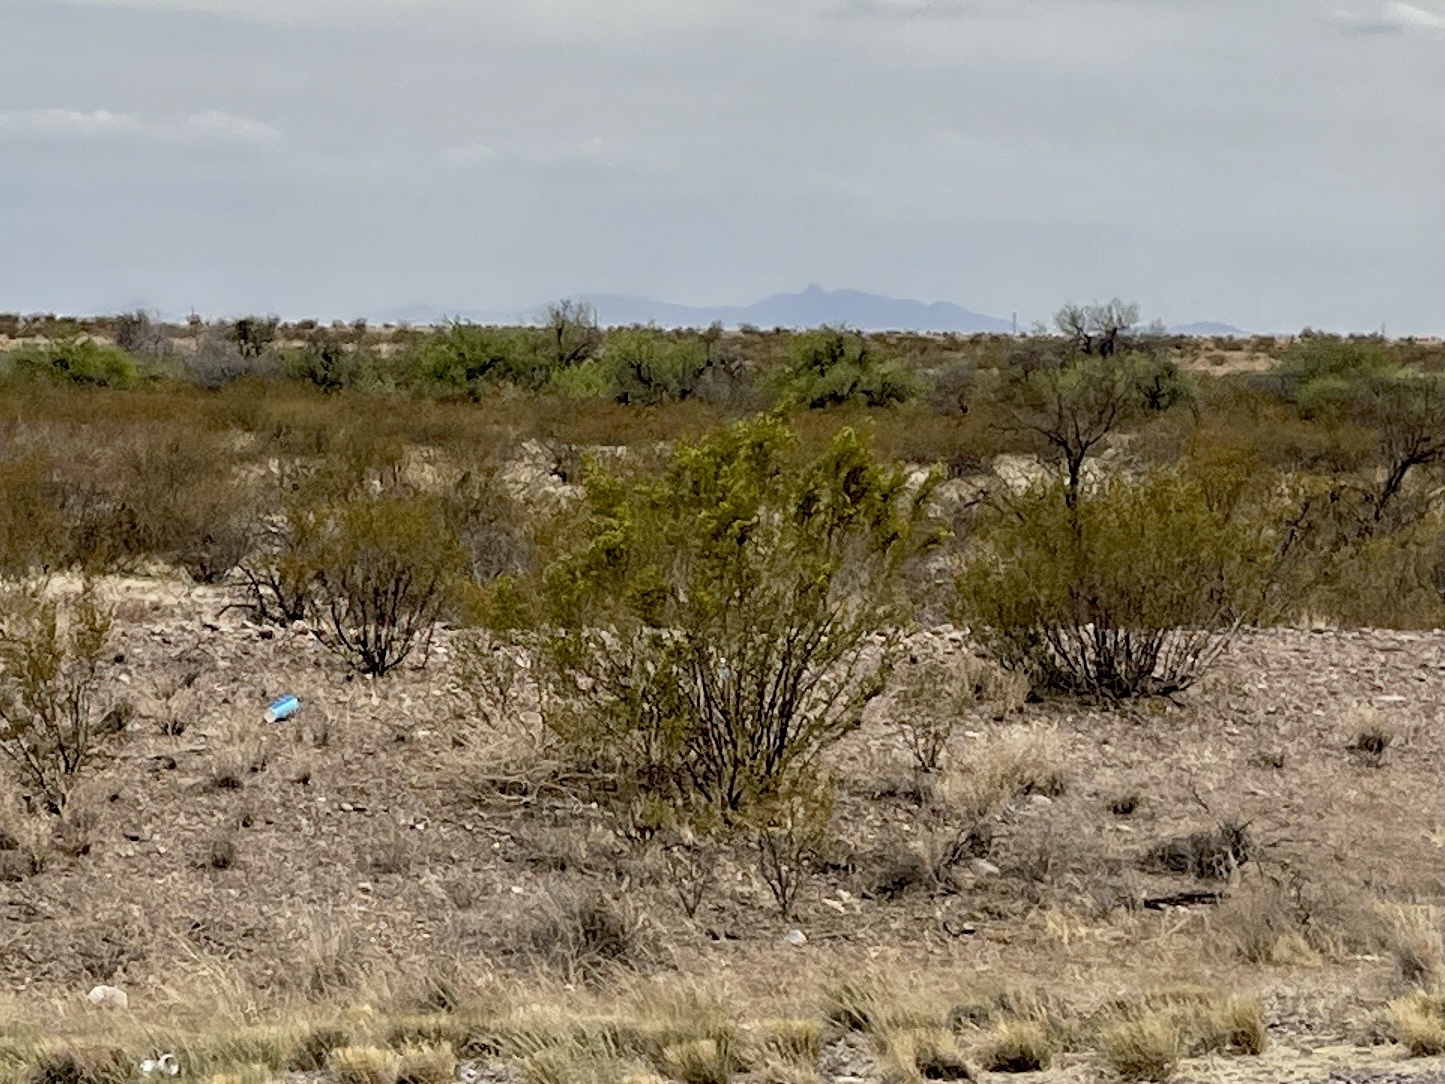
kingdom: Plantae
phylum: Tracheophyta
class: Magnoliopsida
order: Zygophyllales
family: Zygophyllaceae
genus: Larrea
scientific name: Larrea tridentata
